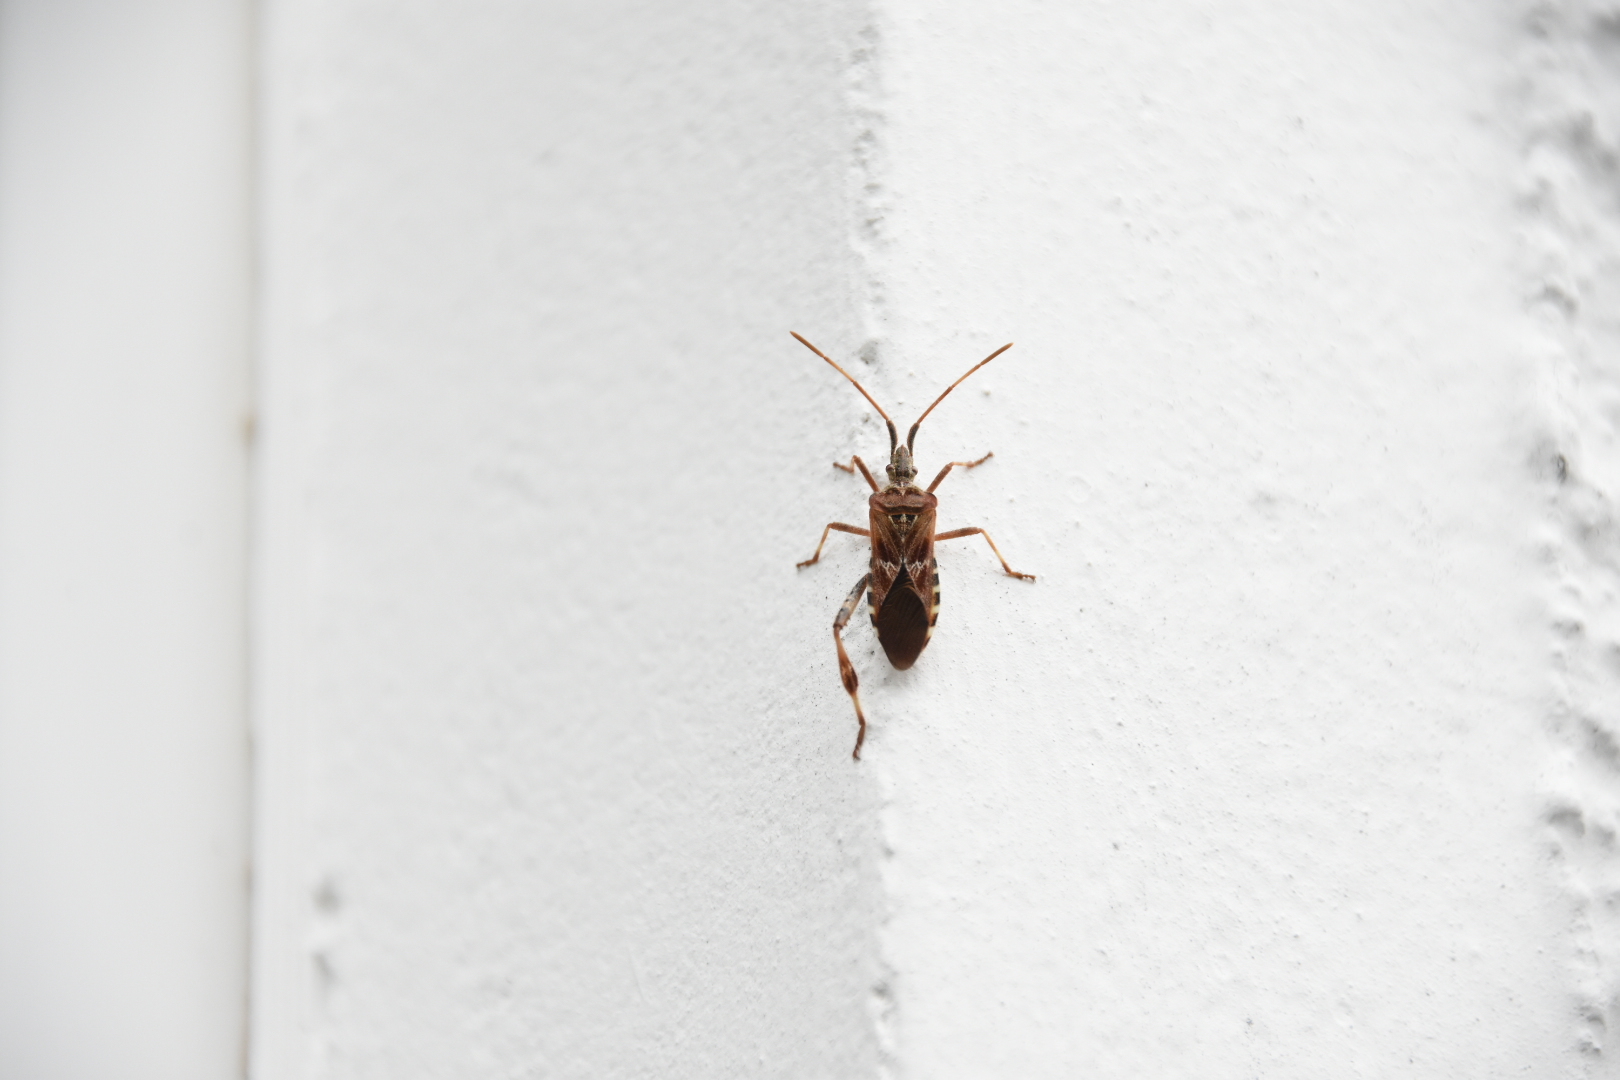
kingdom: Animalia
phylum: Arthropoda
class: Insecta
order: Hemiptera
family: Coreidae
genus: Leptoglossus
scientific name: Leptoglossus occidentalis
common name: Western conifer-seed bug
